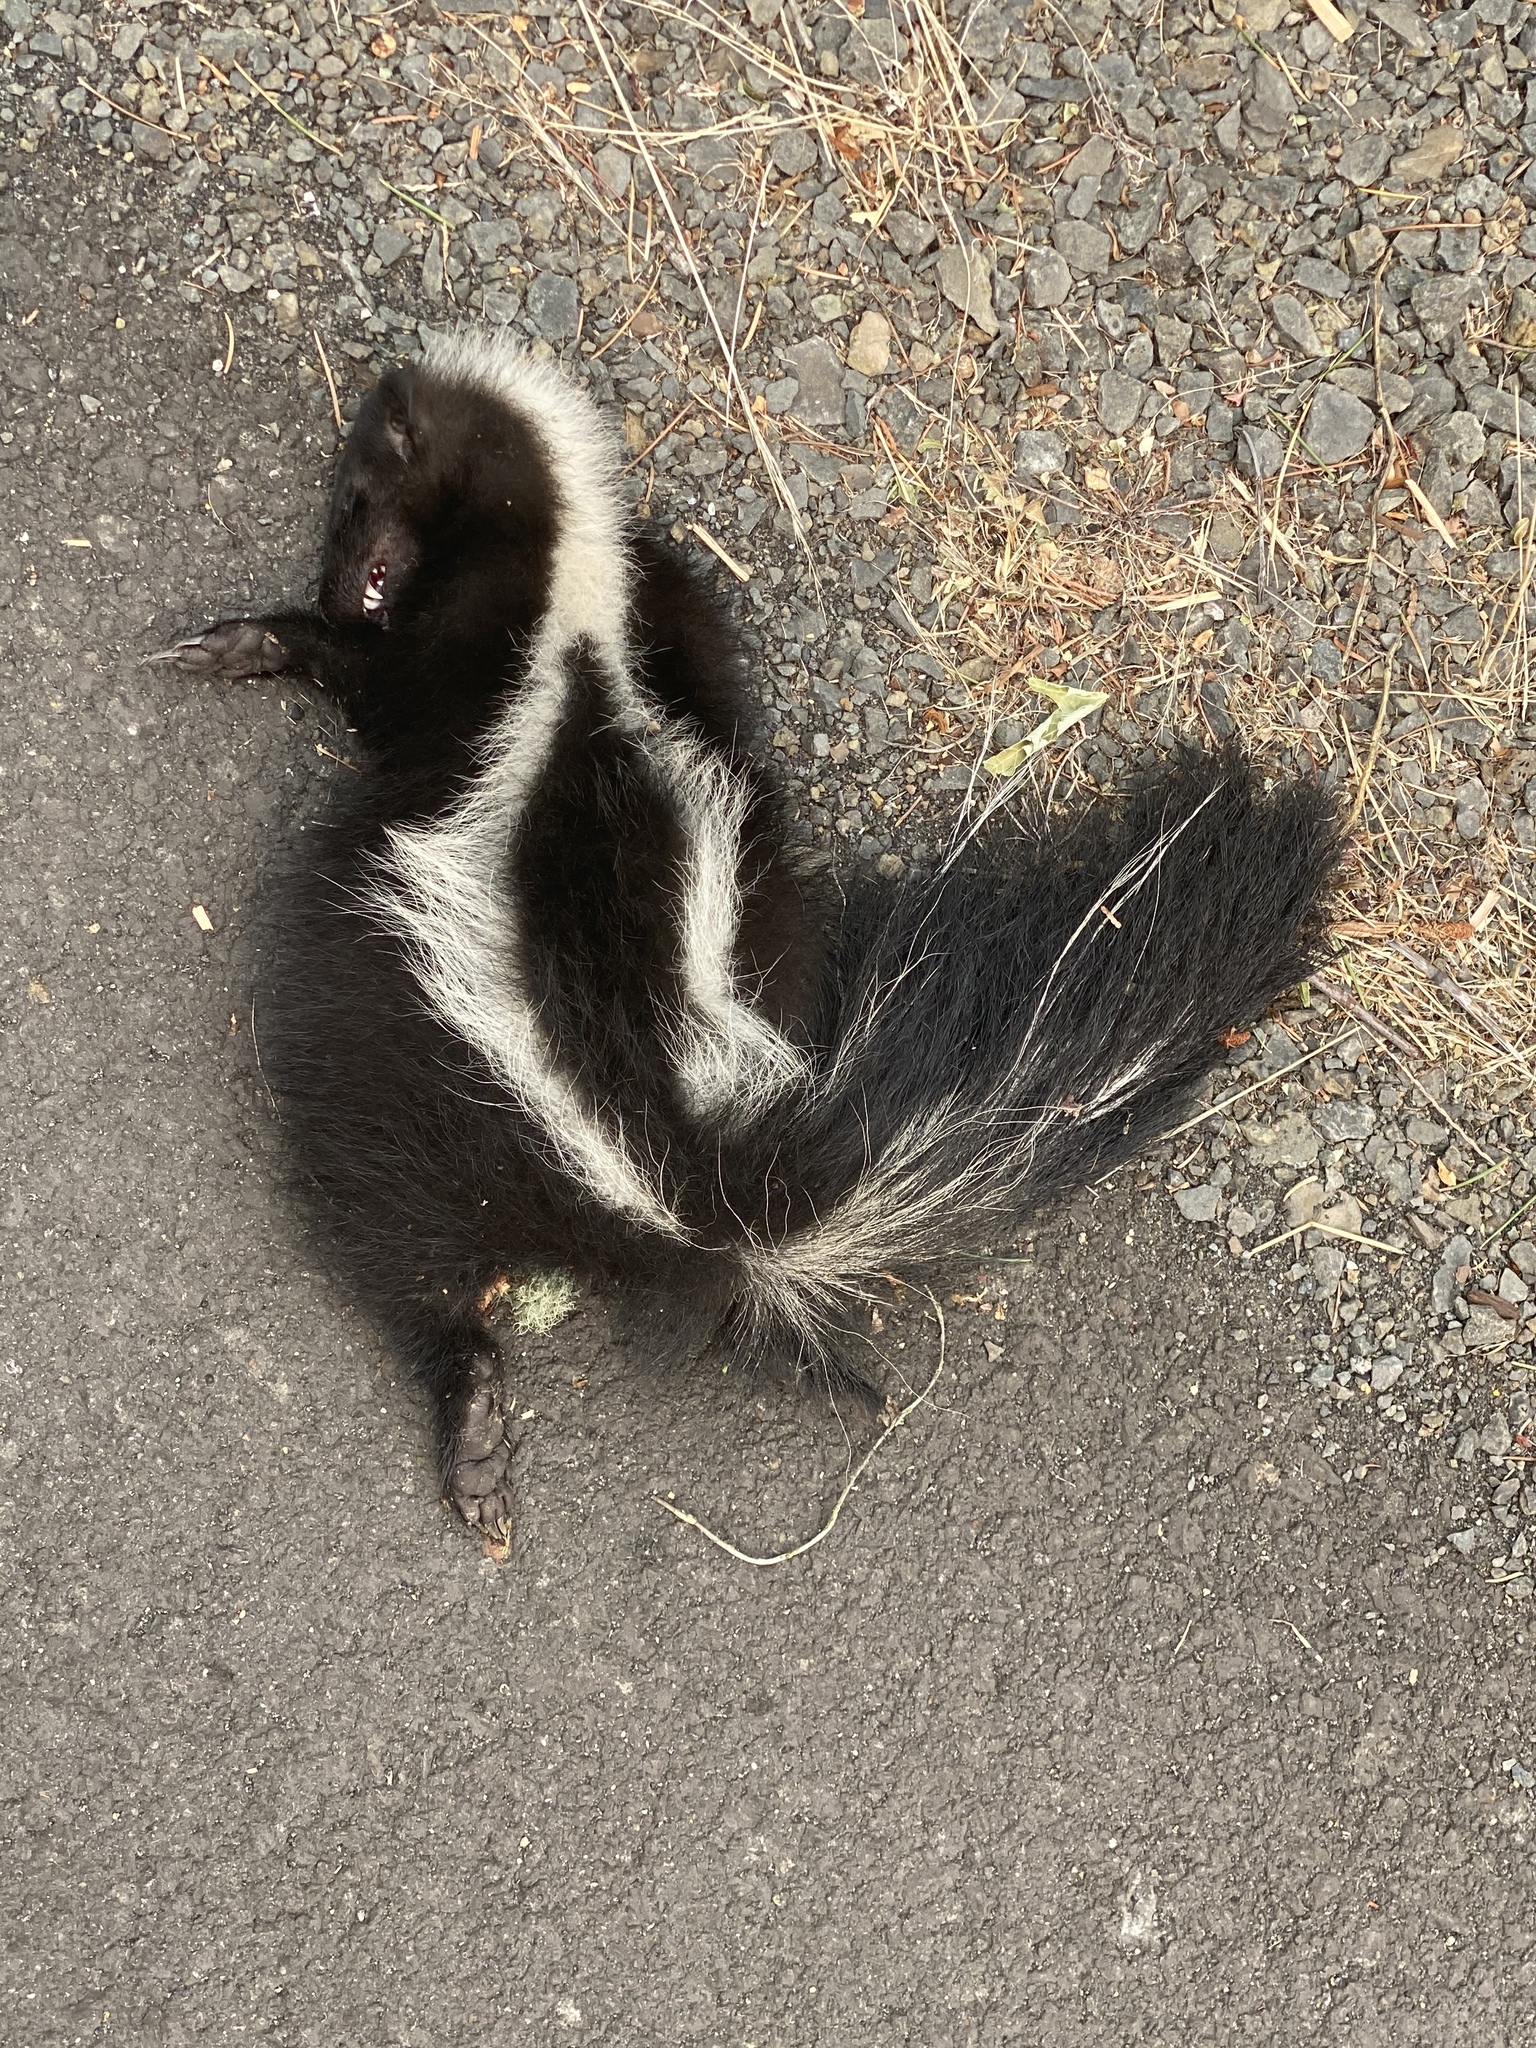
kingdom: Animalia
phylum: Chordata
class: Mammalia
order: Carnivora
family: Mephitidae
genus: Mephitis
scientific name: Mephitis mephitis
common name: Striped skunk
